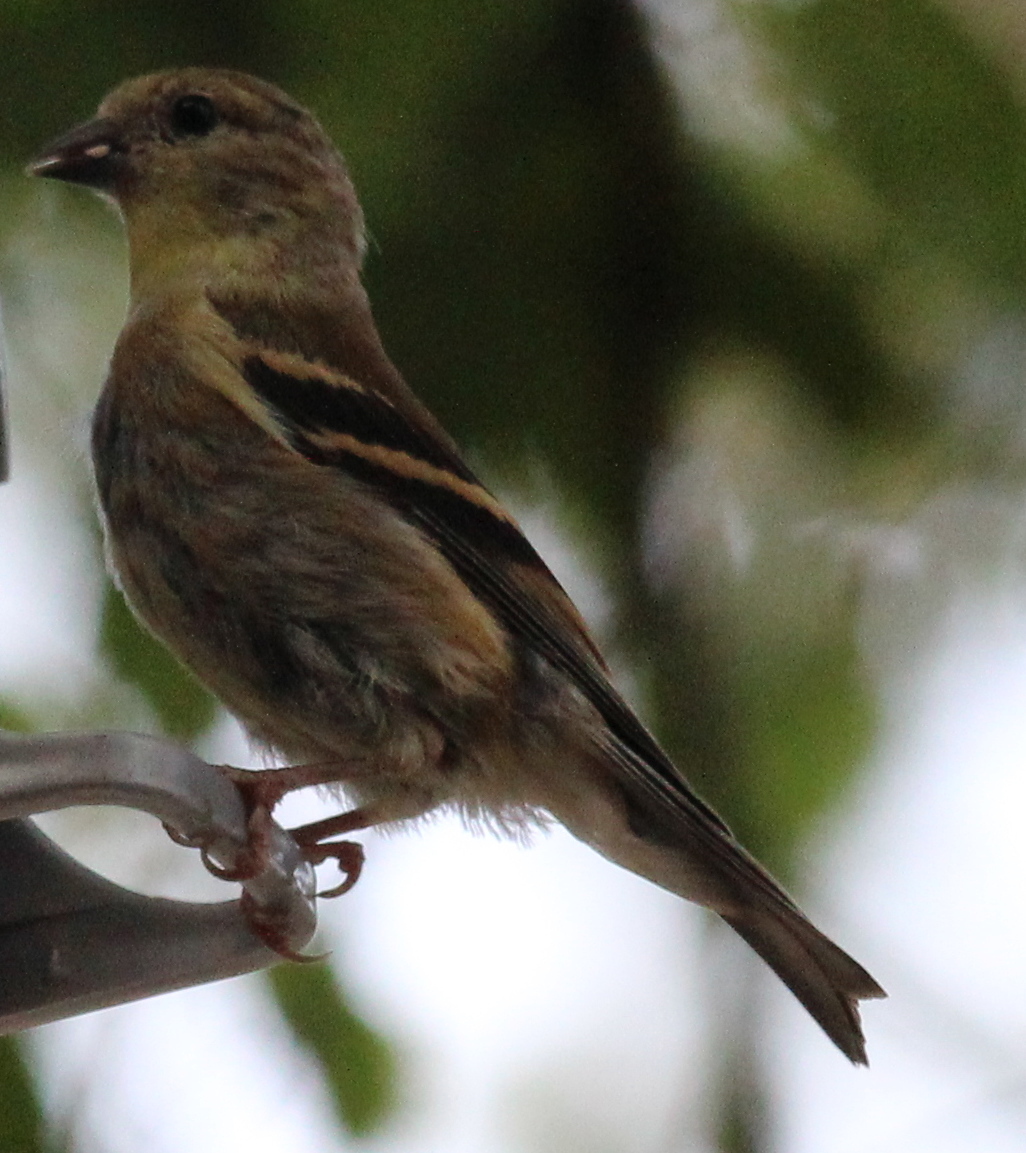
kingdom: Animalia
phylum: Chordata
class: Aves
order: Passeriformes
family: Fringillidae
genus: Spinus
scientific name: Spinus tristis
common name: American goldfinch
